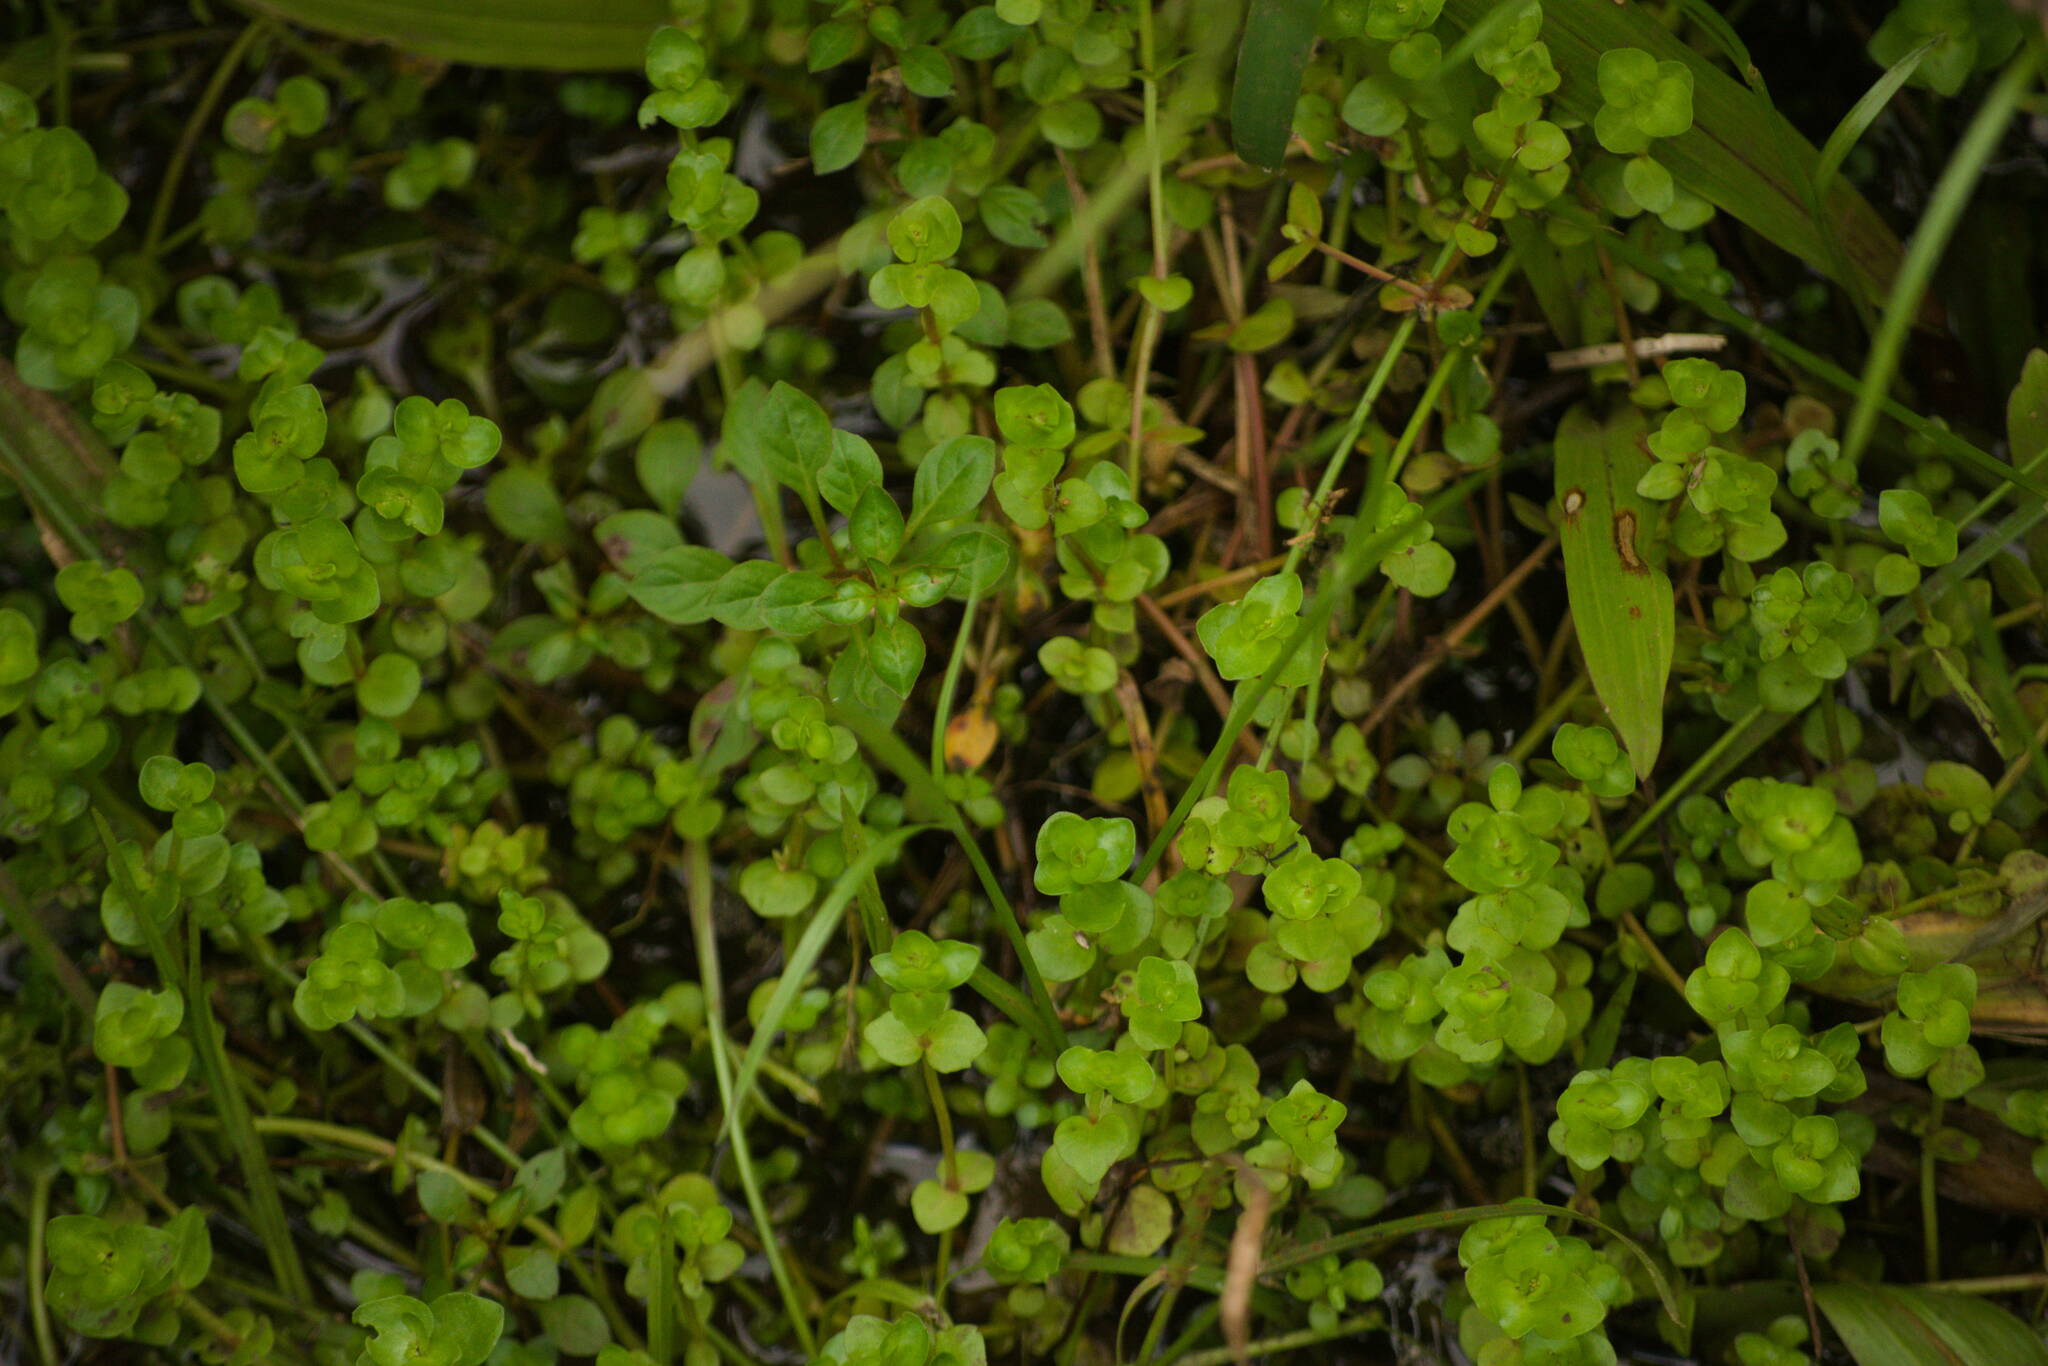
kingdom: Plantae
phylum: Tracheophyta
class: Magnoliopsida
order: Lamiales
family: Linderniaceae
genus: Lindernia
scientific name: Lindernia rotundifolia
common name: Baby’s tears
